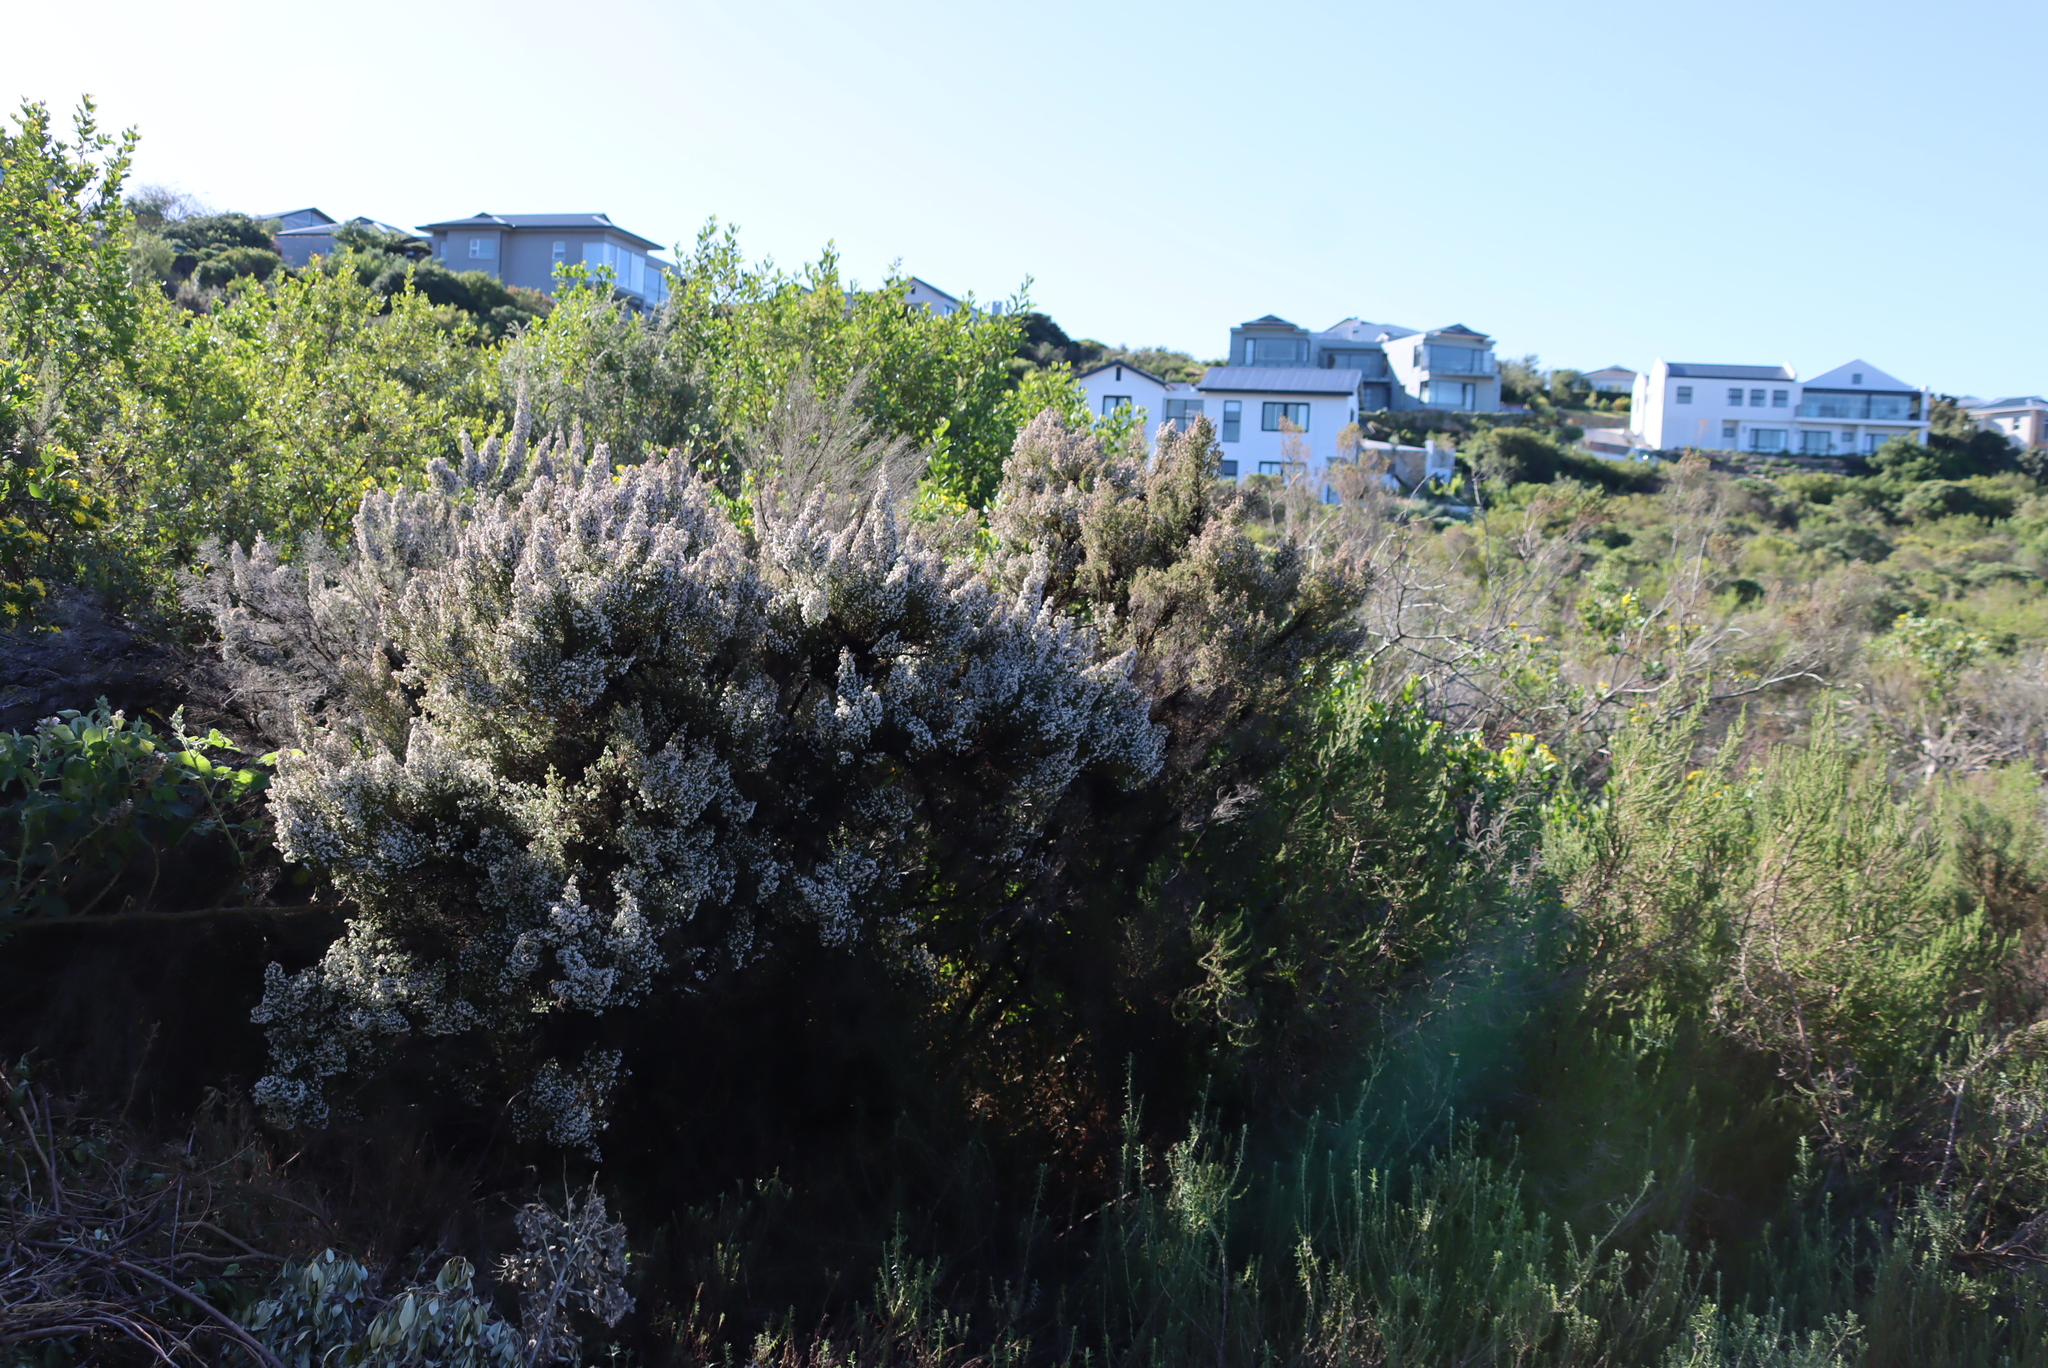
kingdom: Plantae
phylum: Tracheophyta
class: Magnoliopsida
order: Ericales
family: Ericaceae
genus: Erica
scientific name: Erica scabriuscula
